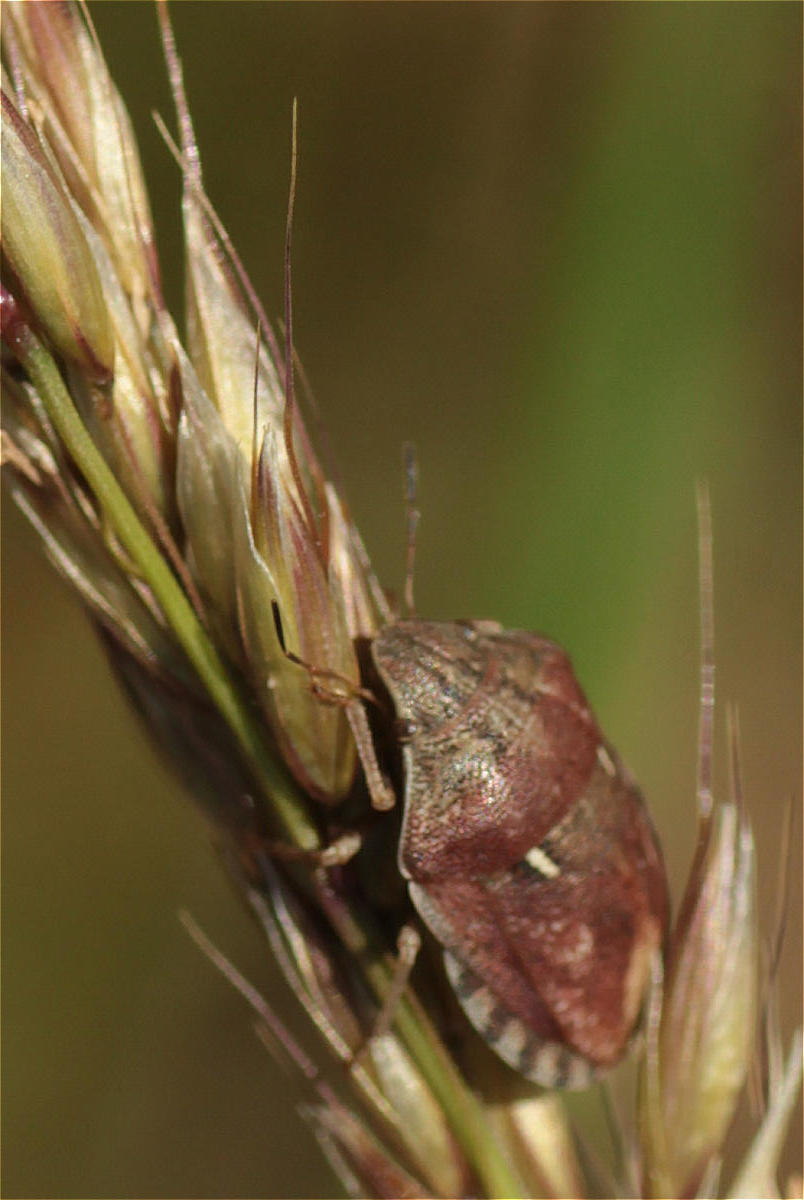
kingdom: Animalia
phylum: Arthropoda
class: Insecta
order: Hemiptera
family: Scutelleridae
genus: Eurygaster
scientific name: Eurygaster maura
